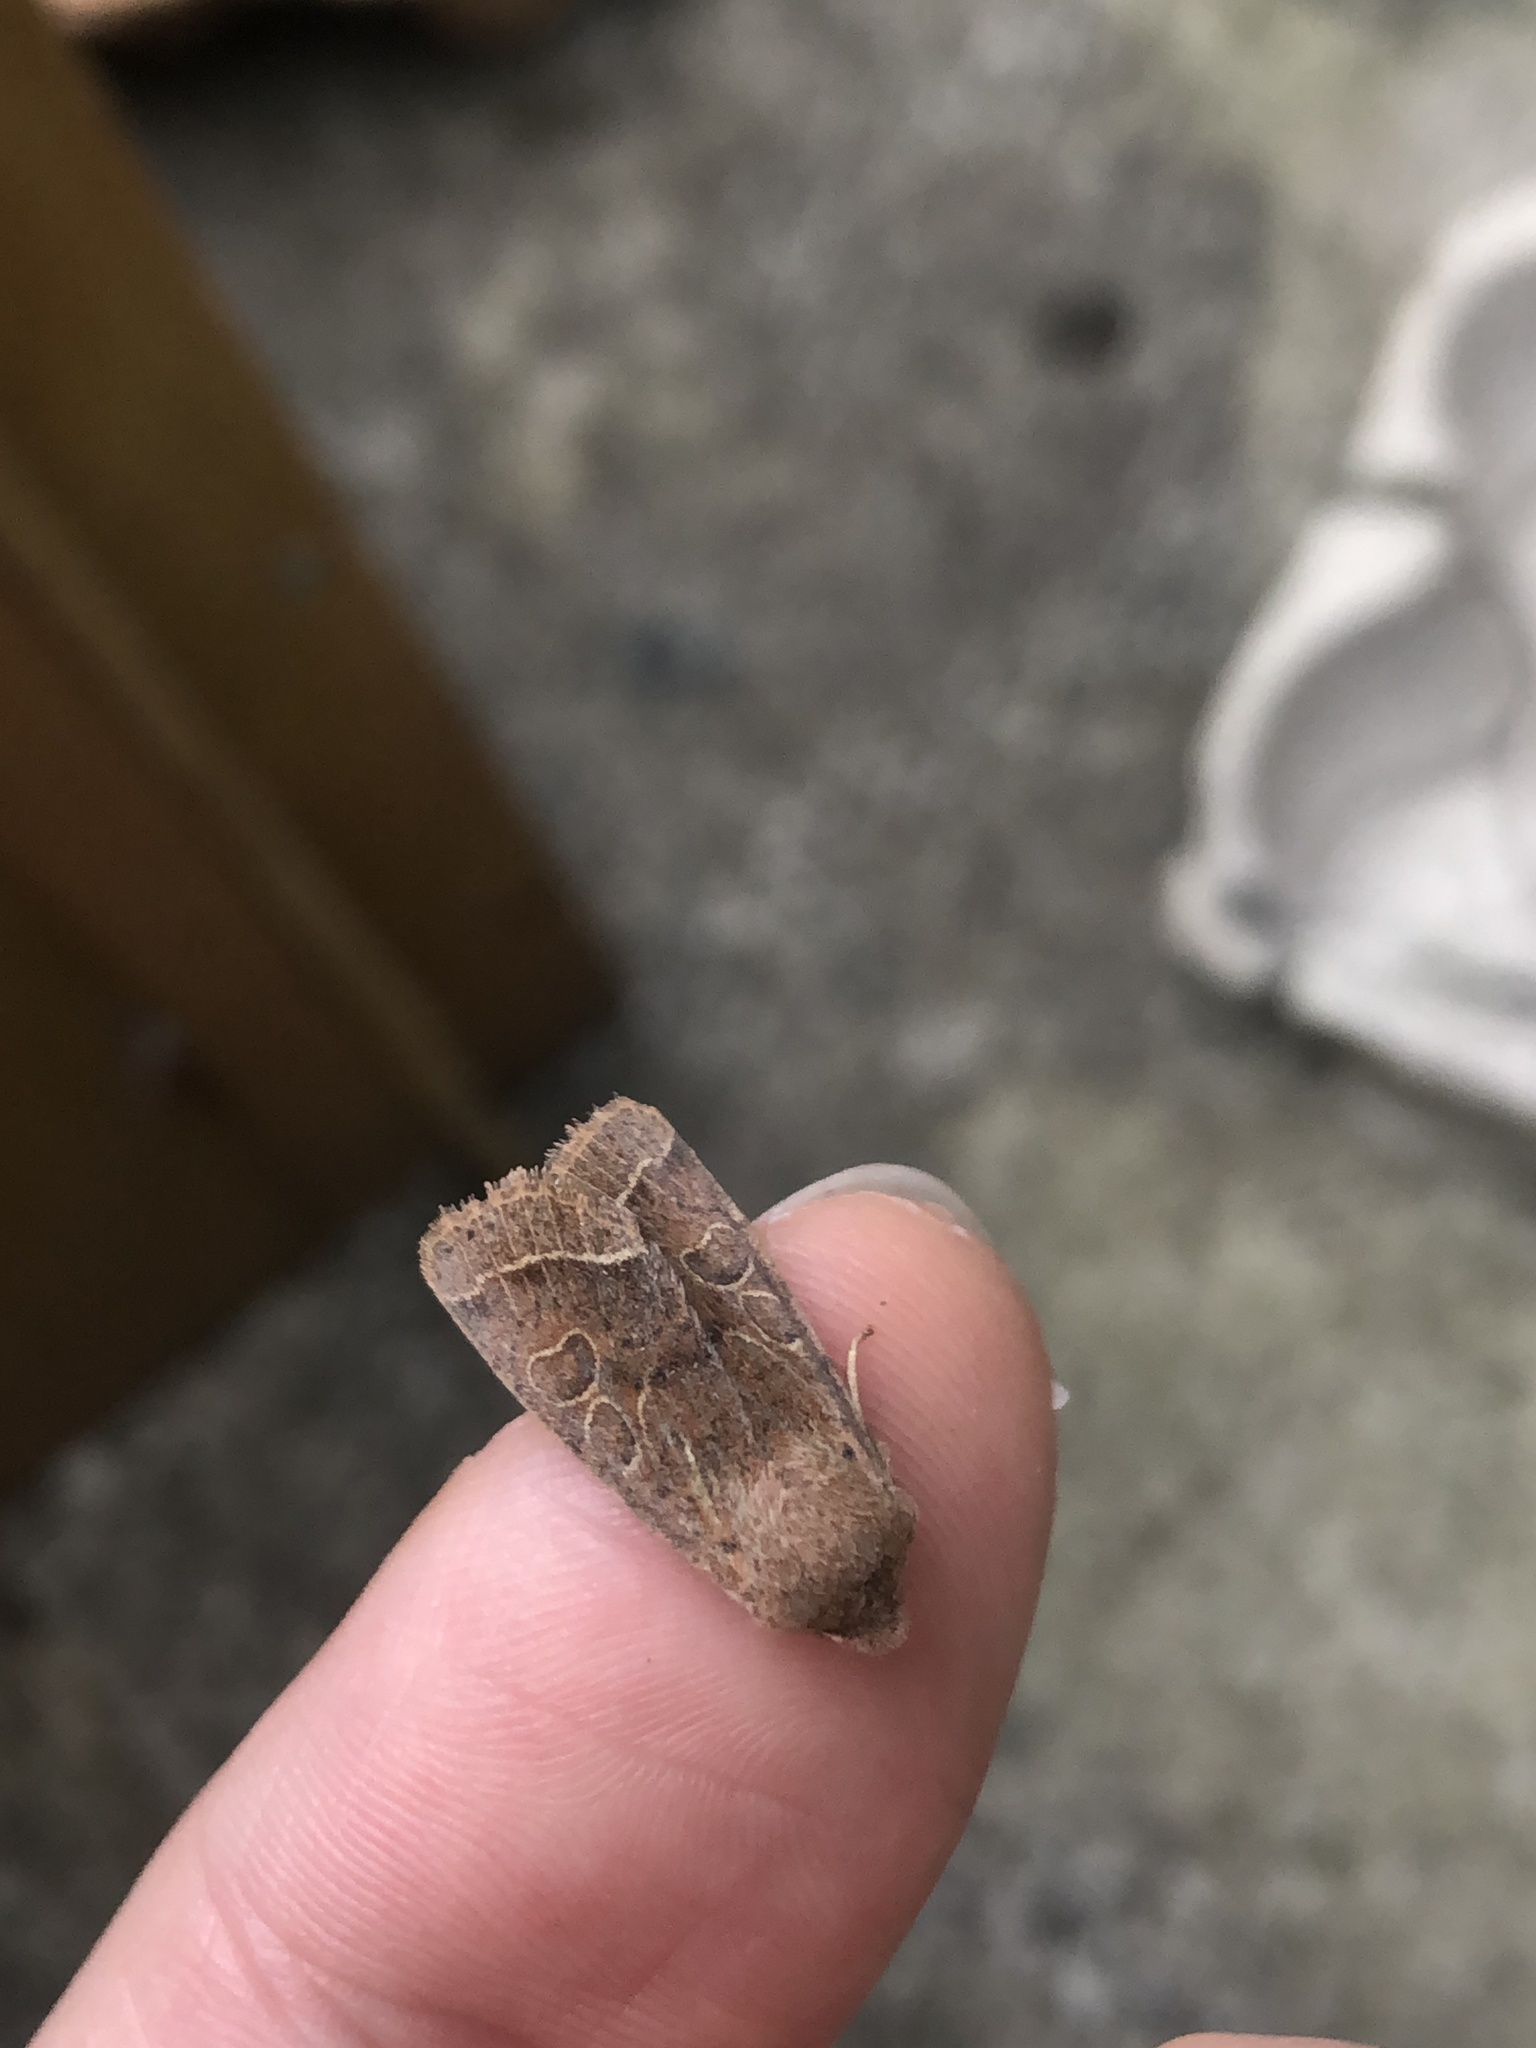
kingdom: Animalia
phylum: Arthropoda
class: Insecta
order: Lepidoptera
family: Noctuidae
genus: Orthosia
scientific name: Orthosia cerasi
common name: Common quaker
